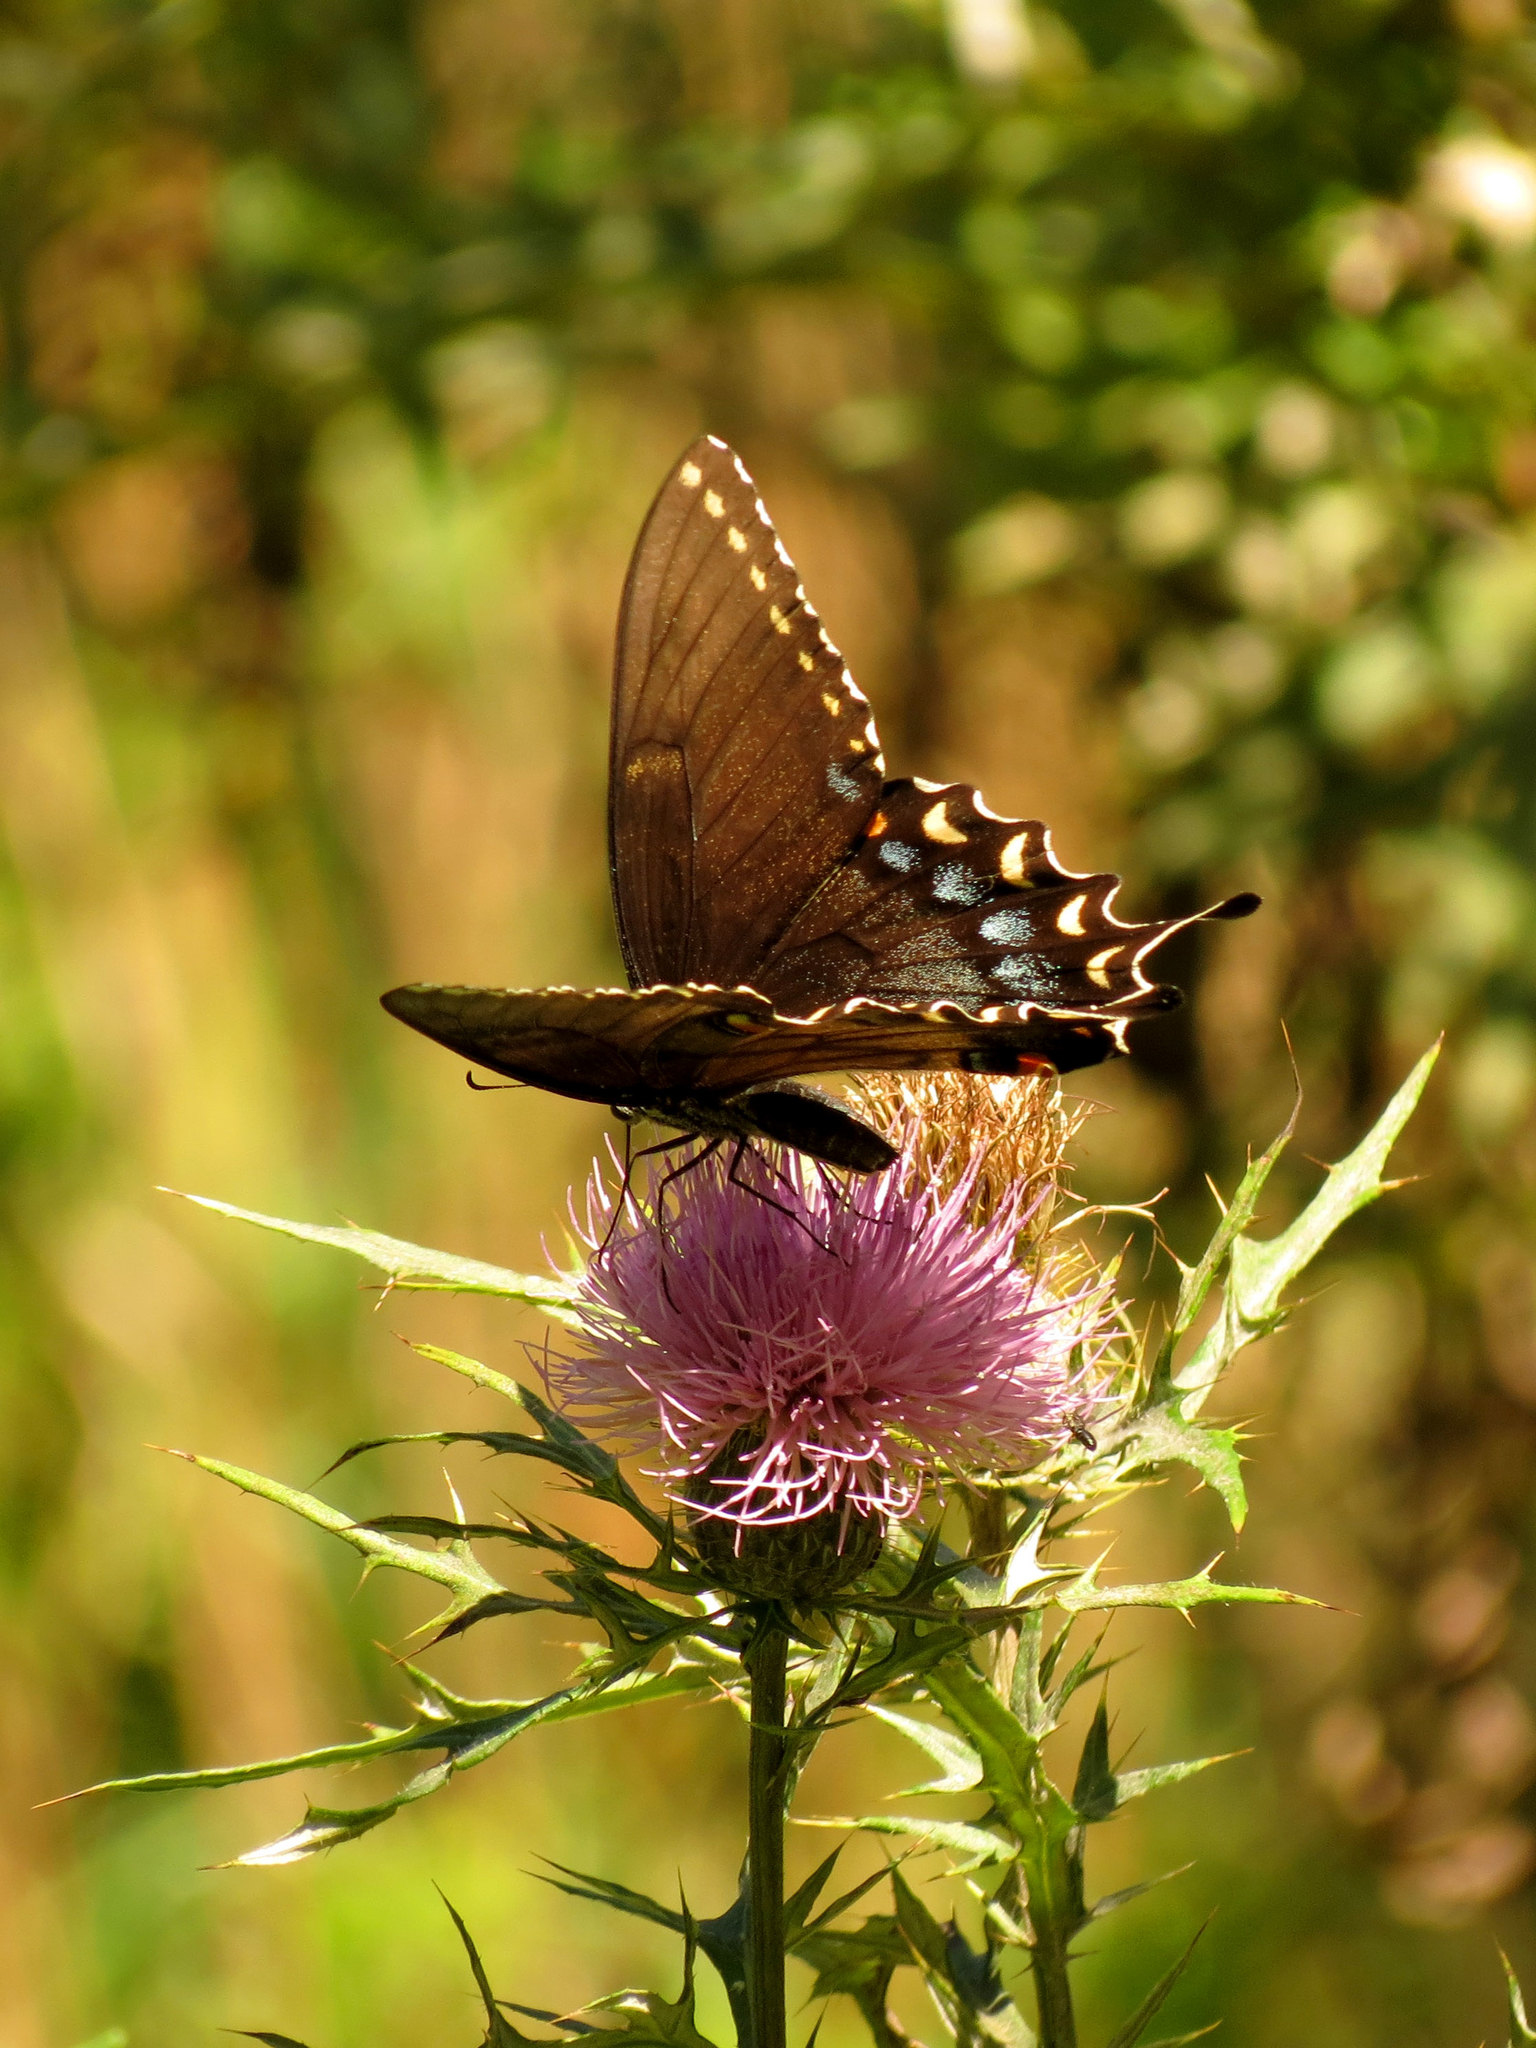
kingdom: Animalia
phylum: Arthropoda
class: Insecta
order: Lepidoptera
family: Papilionidae
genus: Papilio
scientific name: Papilio glaucus
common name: Tiger swallowtail
